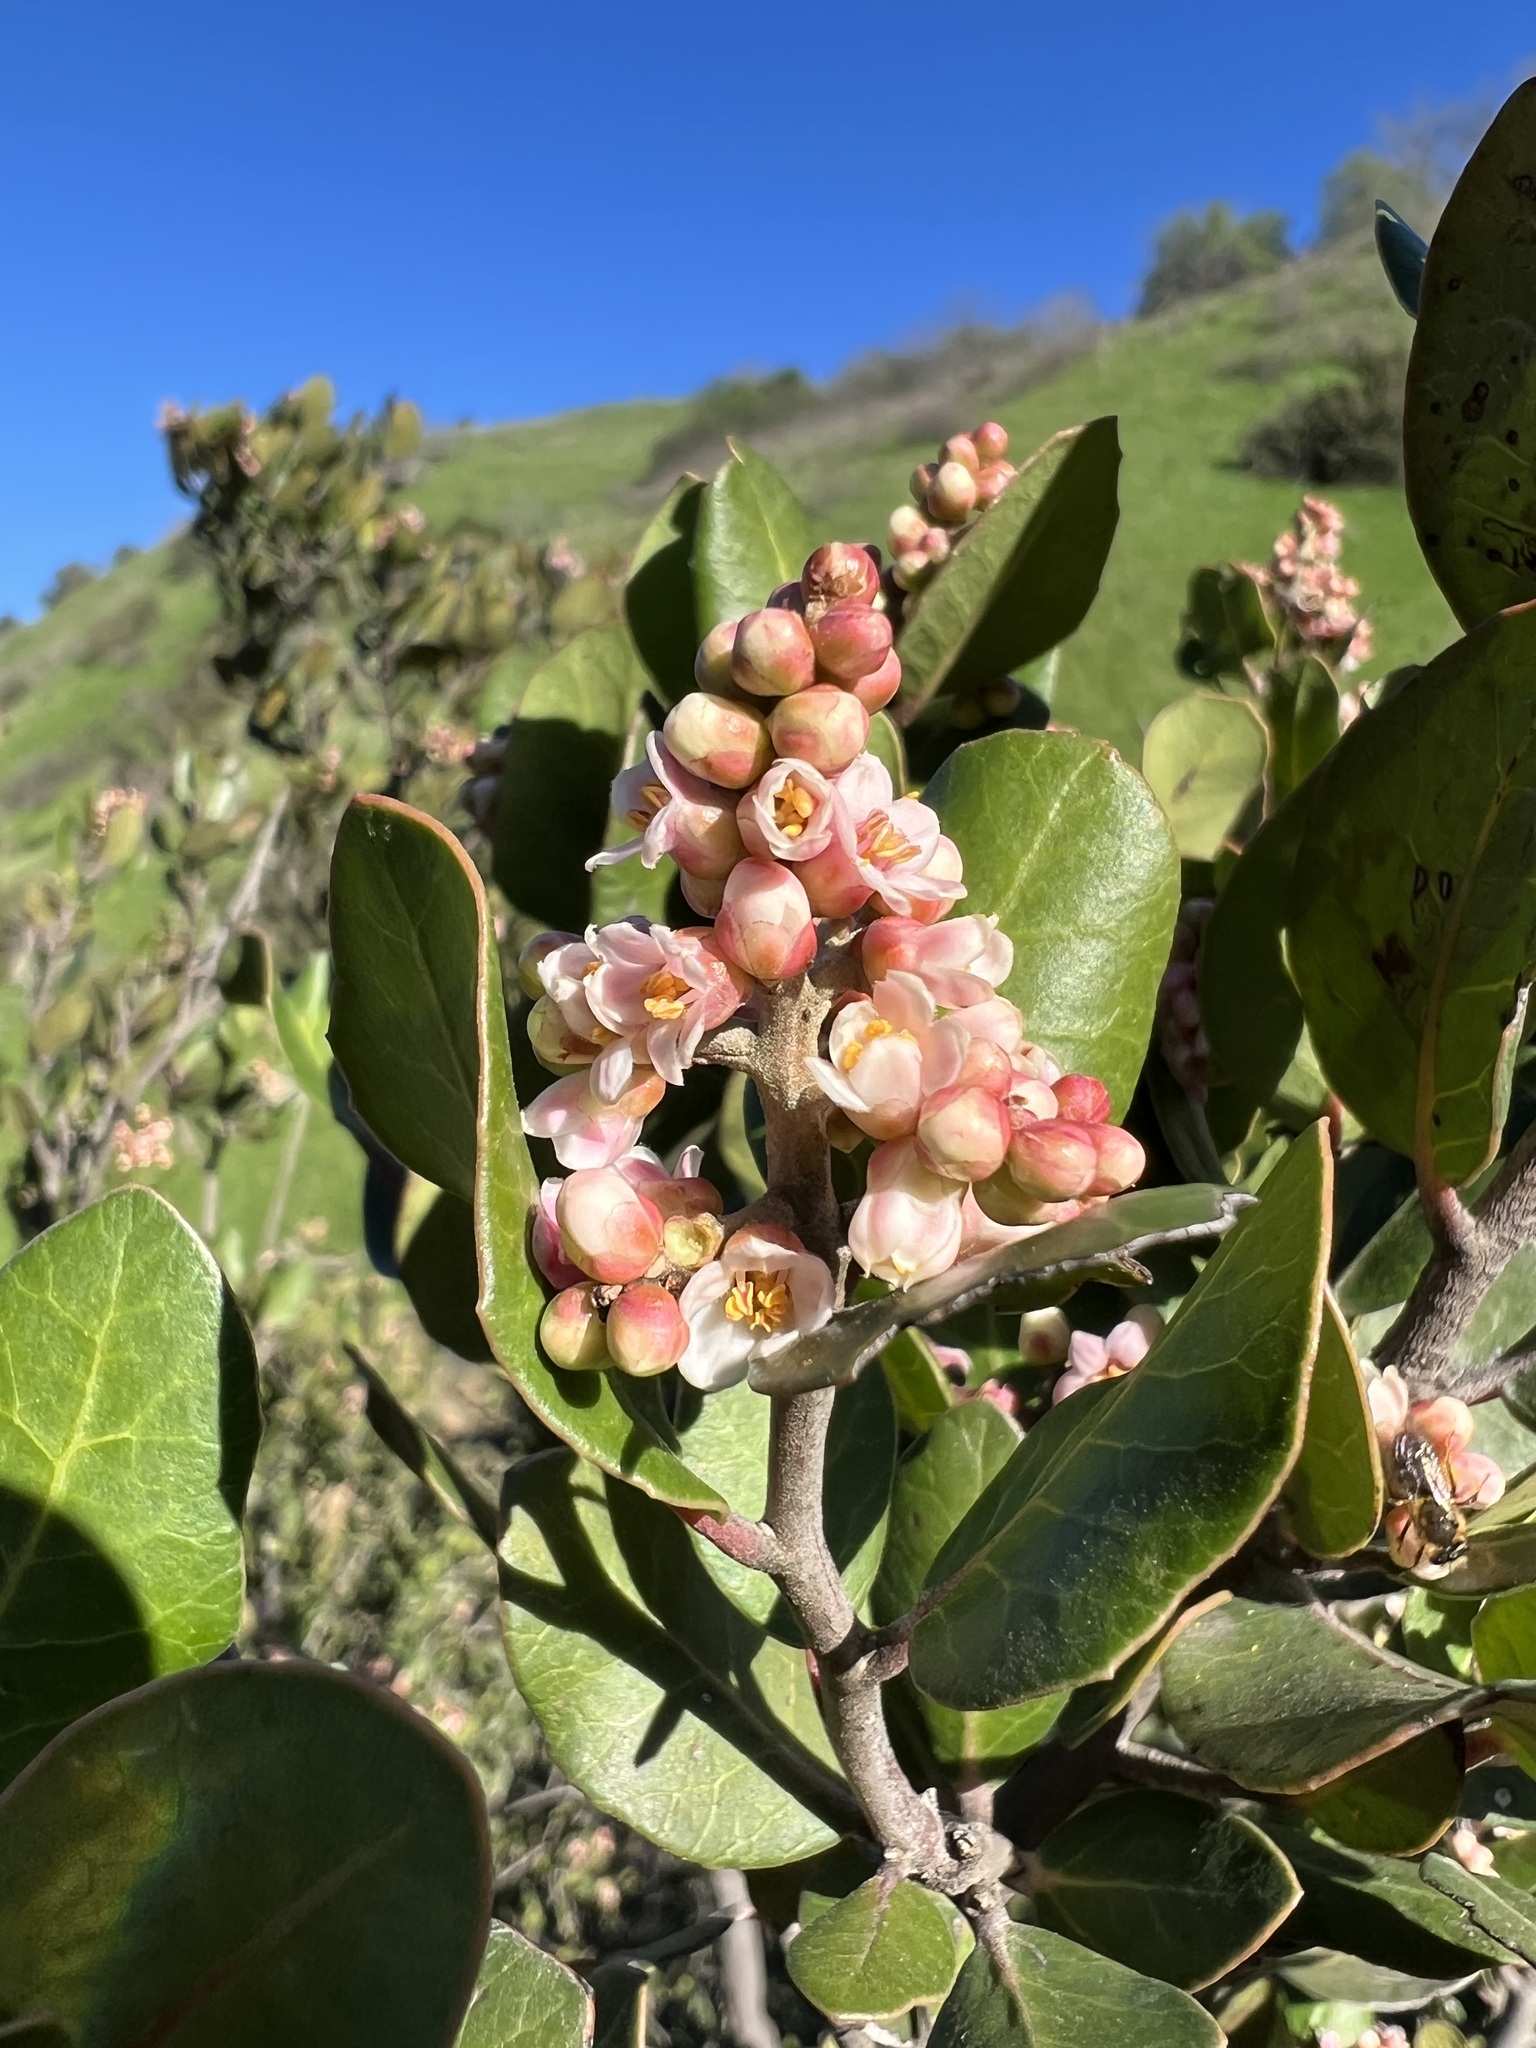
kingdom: Plantae
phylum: Tracheophyta
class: Magnoliopsida
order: Sapindales
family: Anacardiaceae
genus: Rhus
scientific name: Rhus integrifolia
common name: Lemonade sumac
